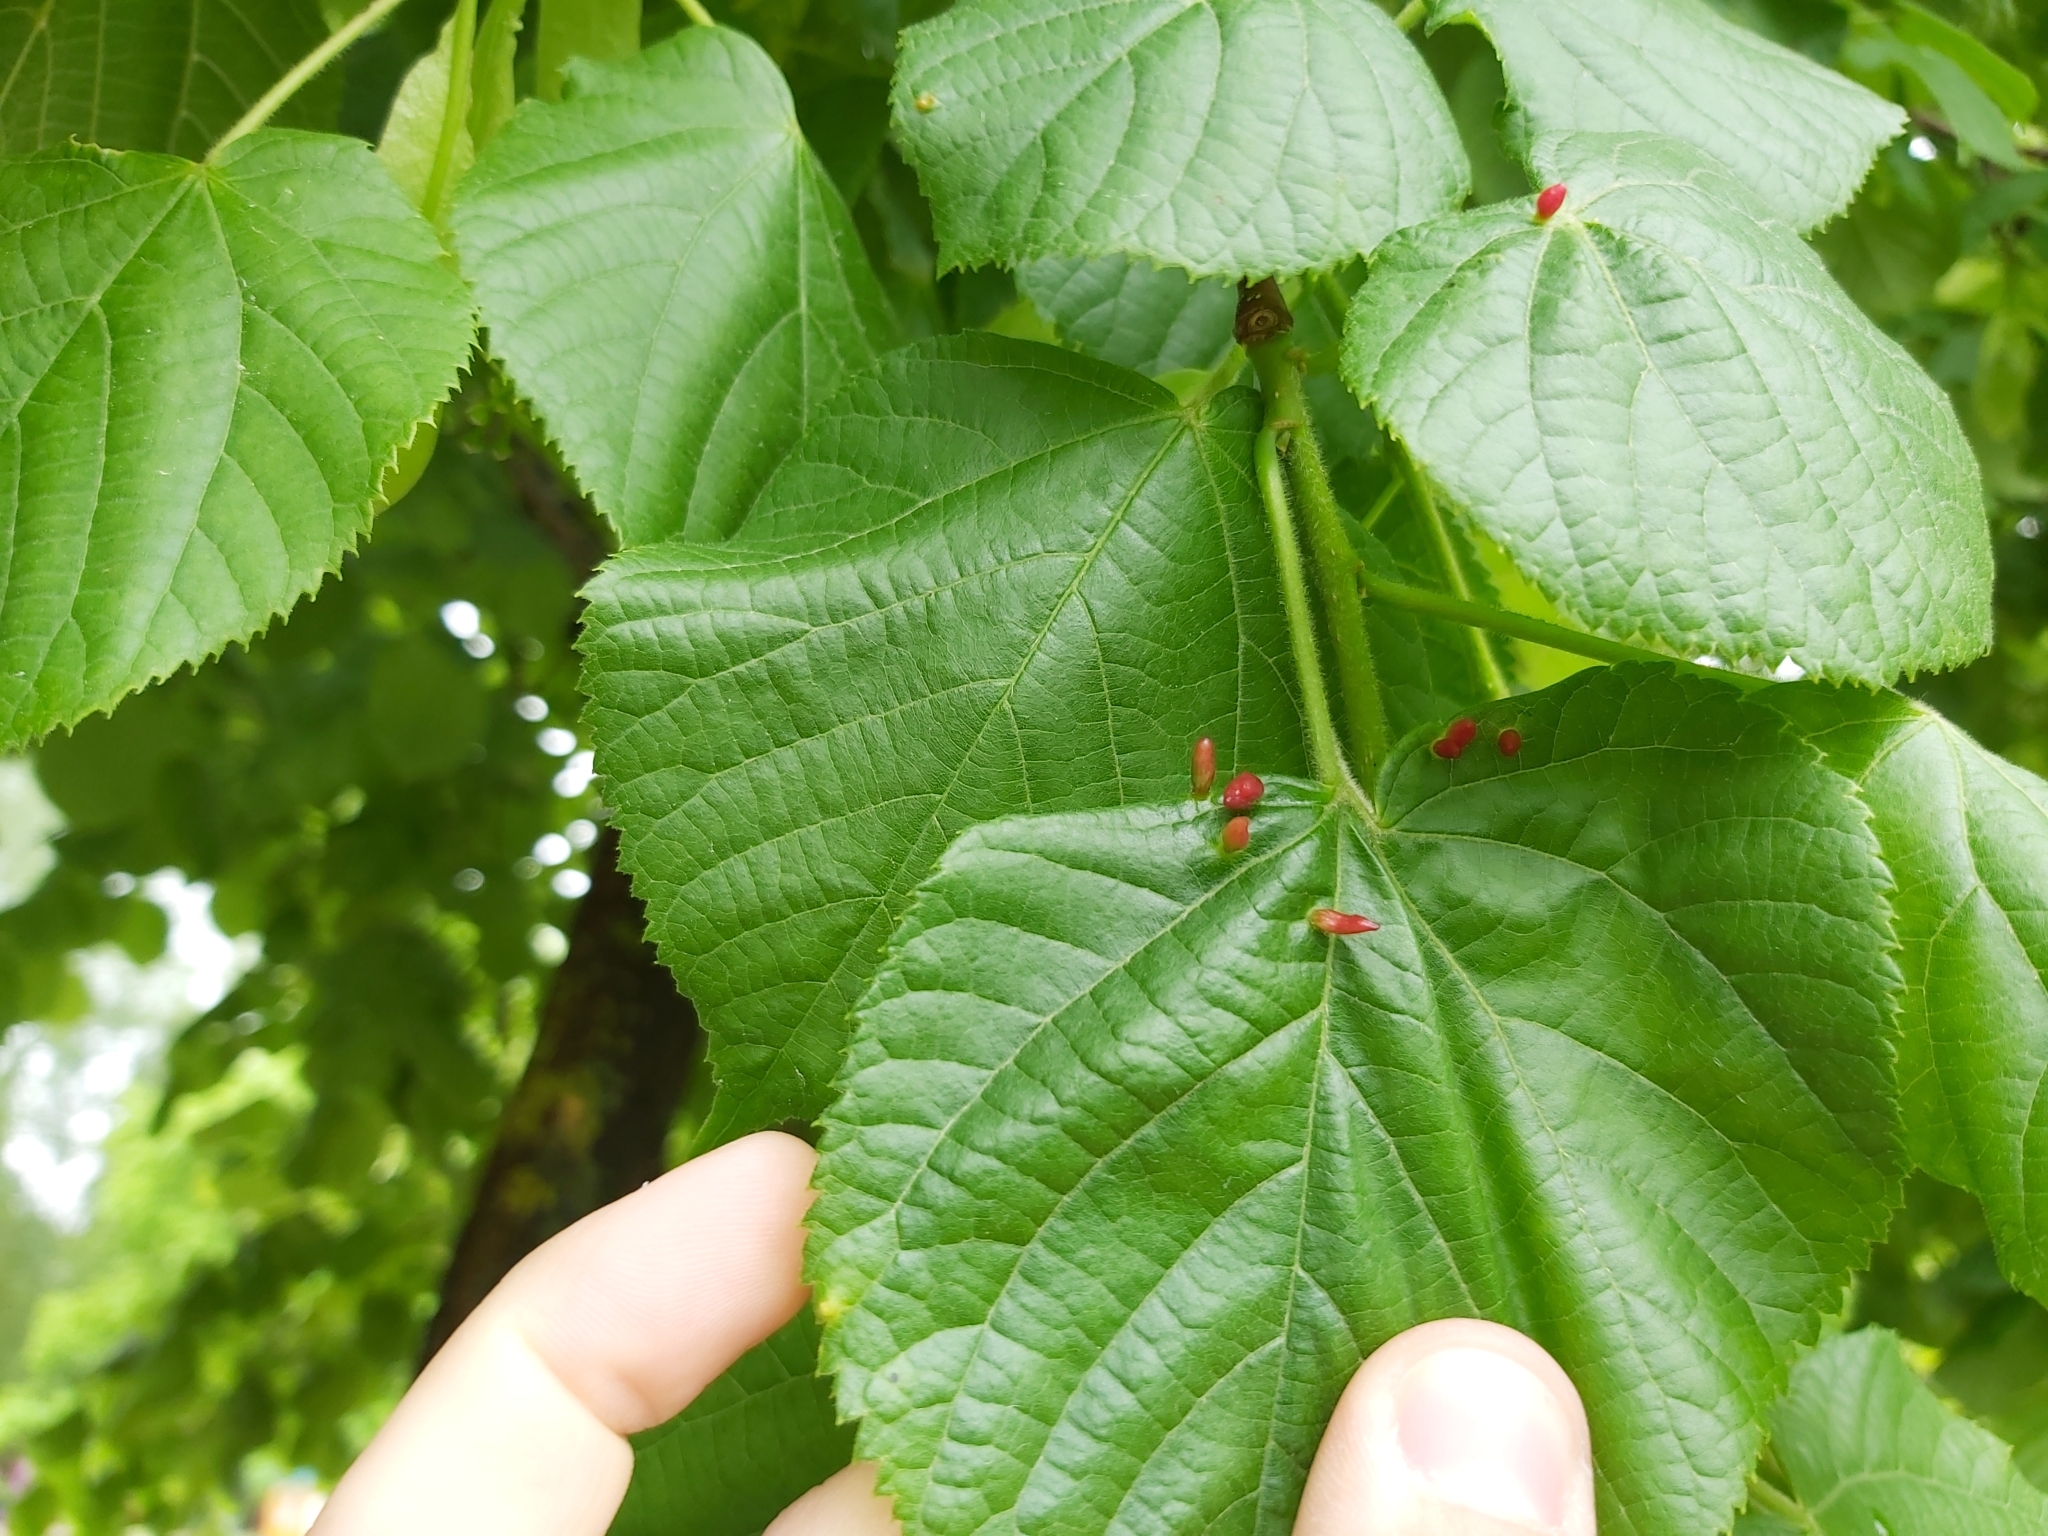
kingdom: Animalia
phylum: Arthropoda
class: Arachnida
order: Trombidiformes
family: Eriophyidae
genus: Eriophyes
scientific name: Eriophyes tiliae
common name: Red nail gall mite
